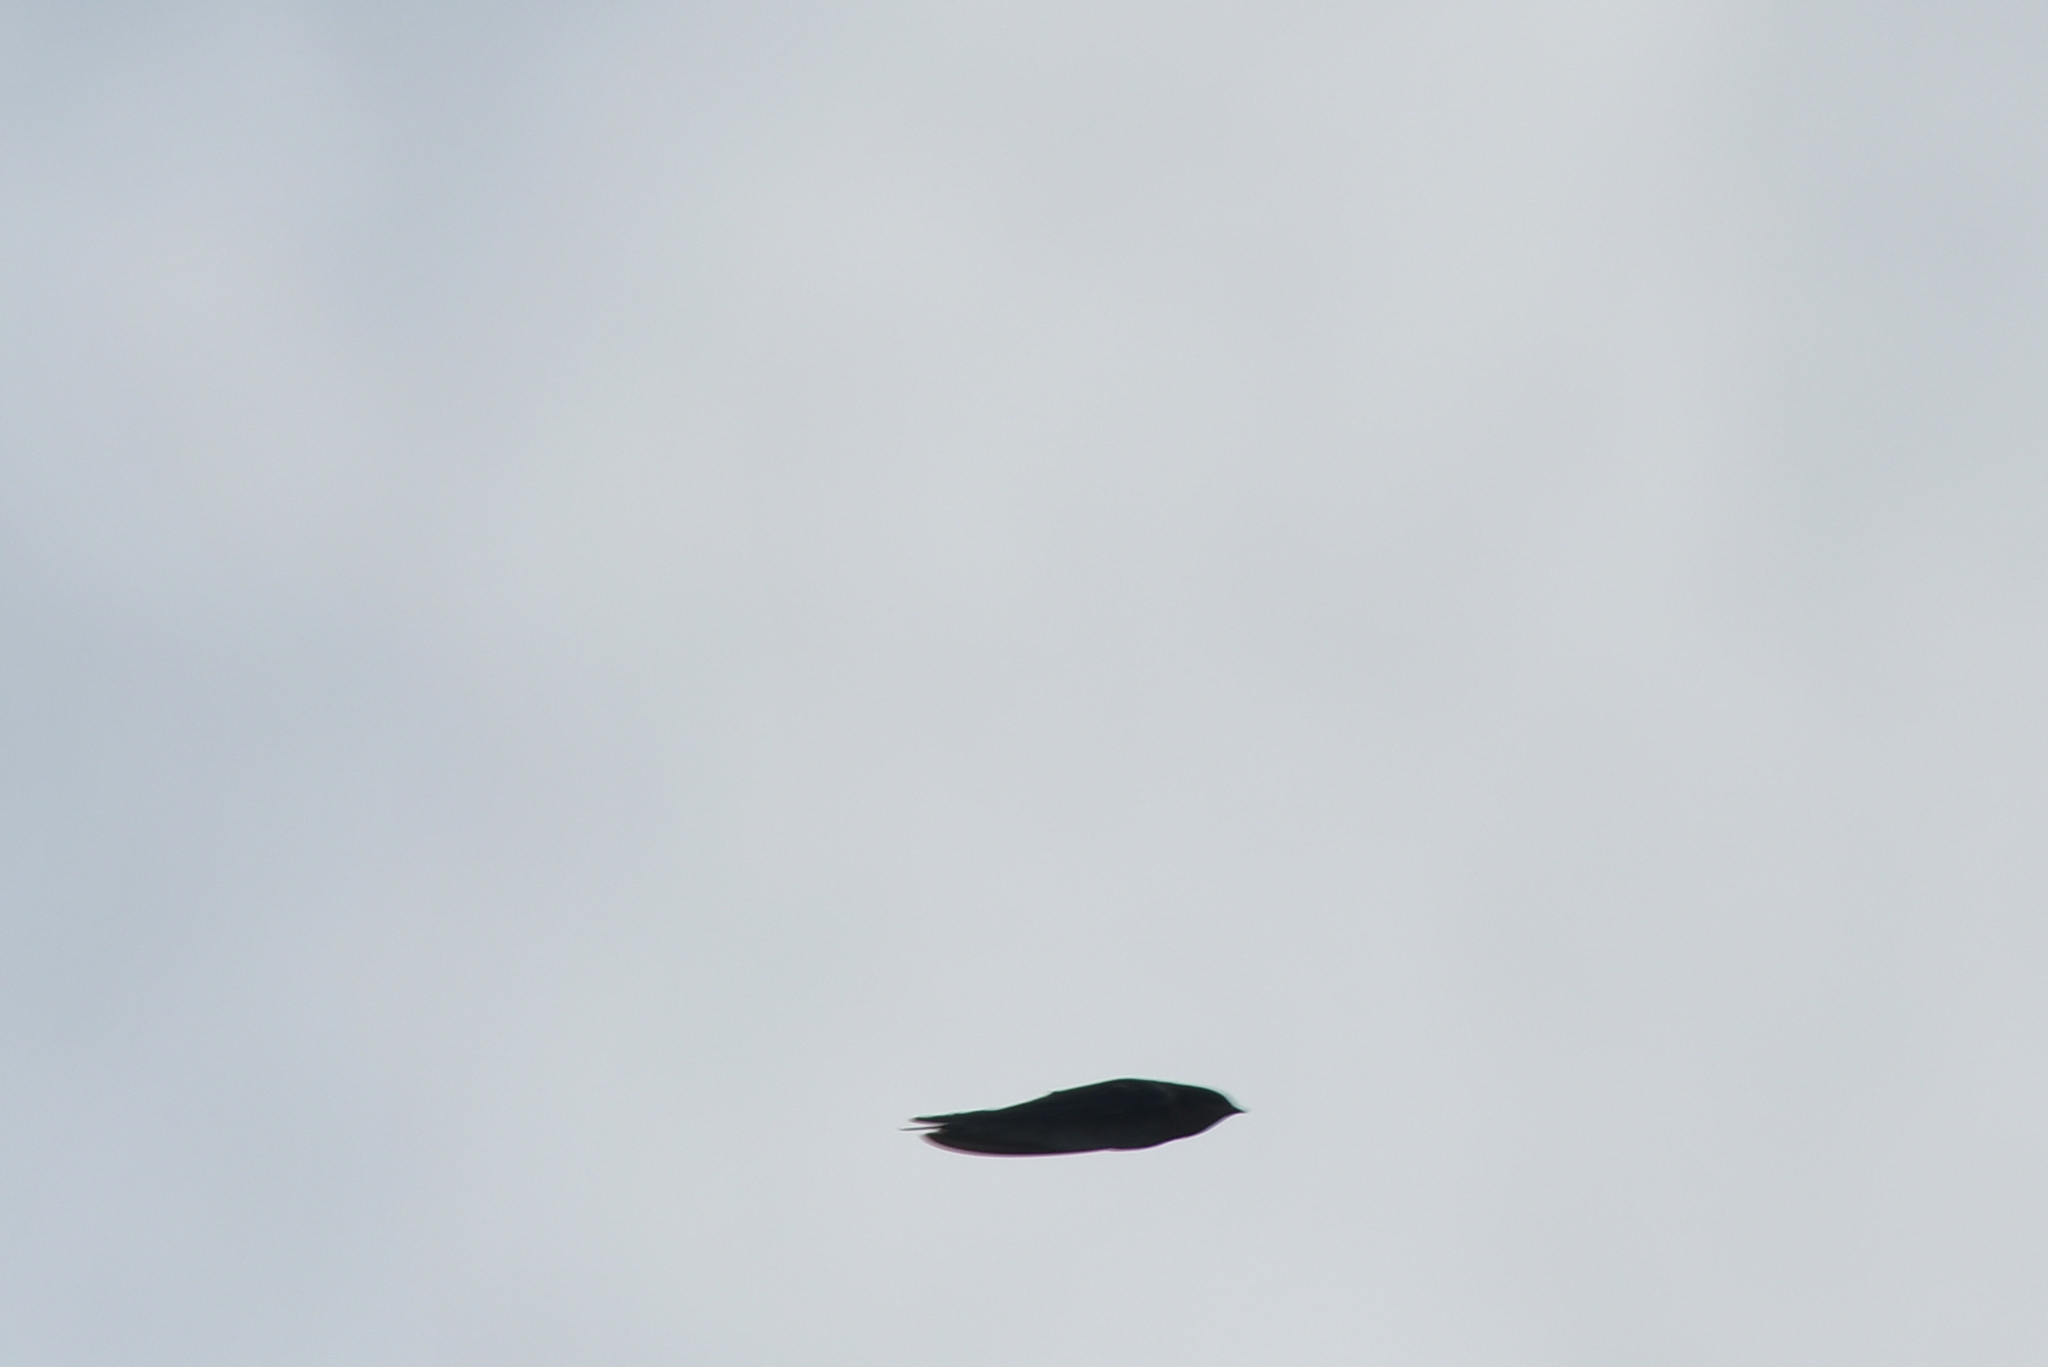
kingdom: Animalia
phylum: Chordata
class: Aves
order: Passeriformes
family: Hirundinidae
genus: Hirundo
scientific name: Hirundo neoxena
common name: Welcome swallow
